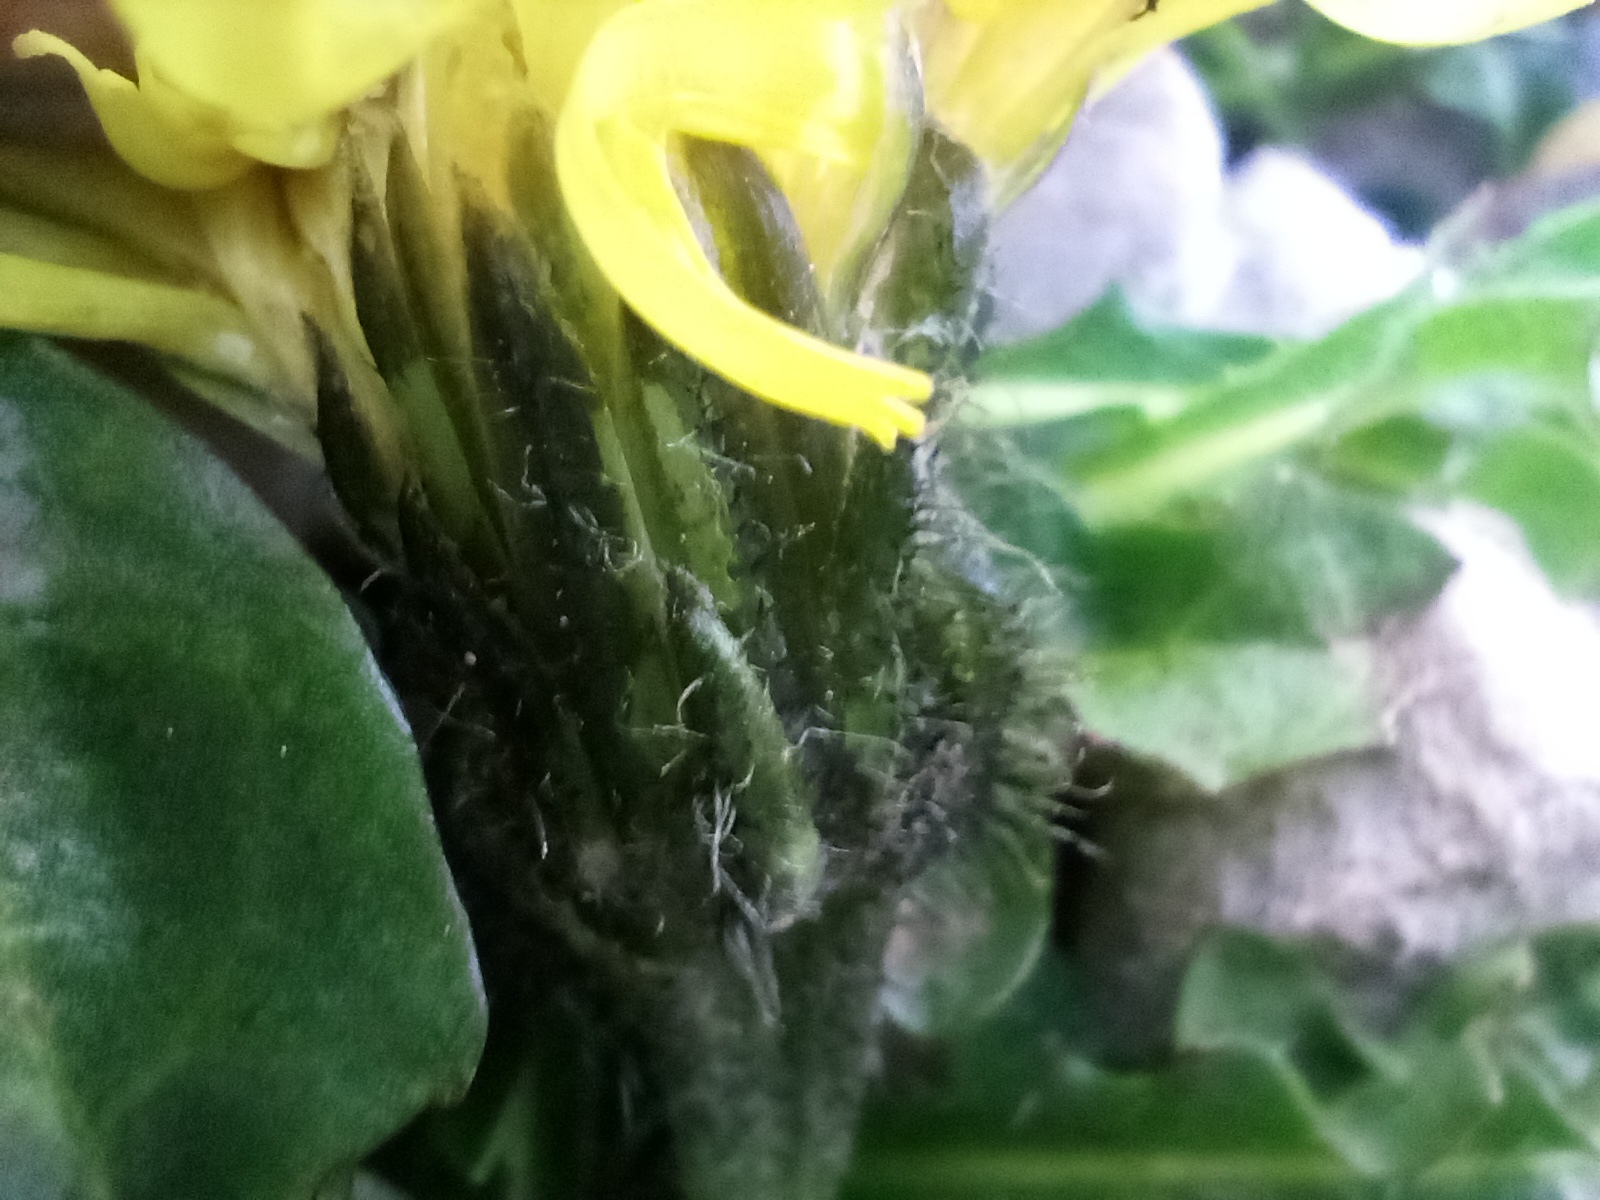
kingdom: Plantae
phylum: Tracheophyta
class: Magnoliopsida
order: Asterales
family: Asteraceae
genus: Crepis
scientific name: Crepis terglouensis
